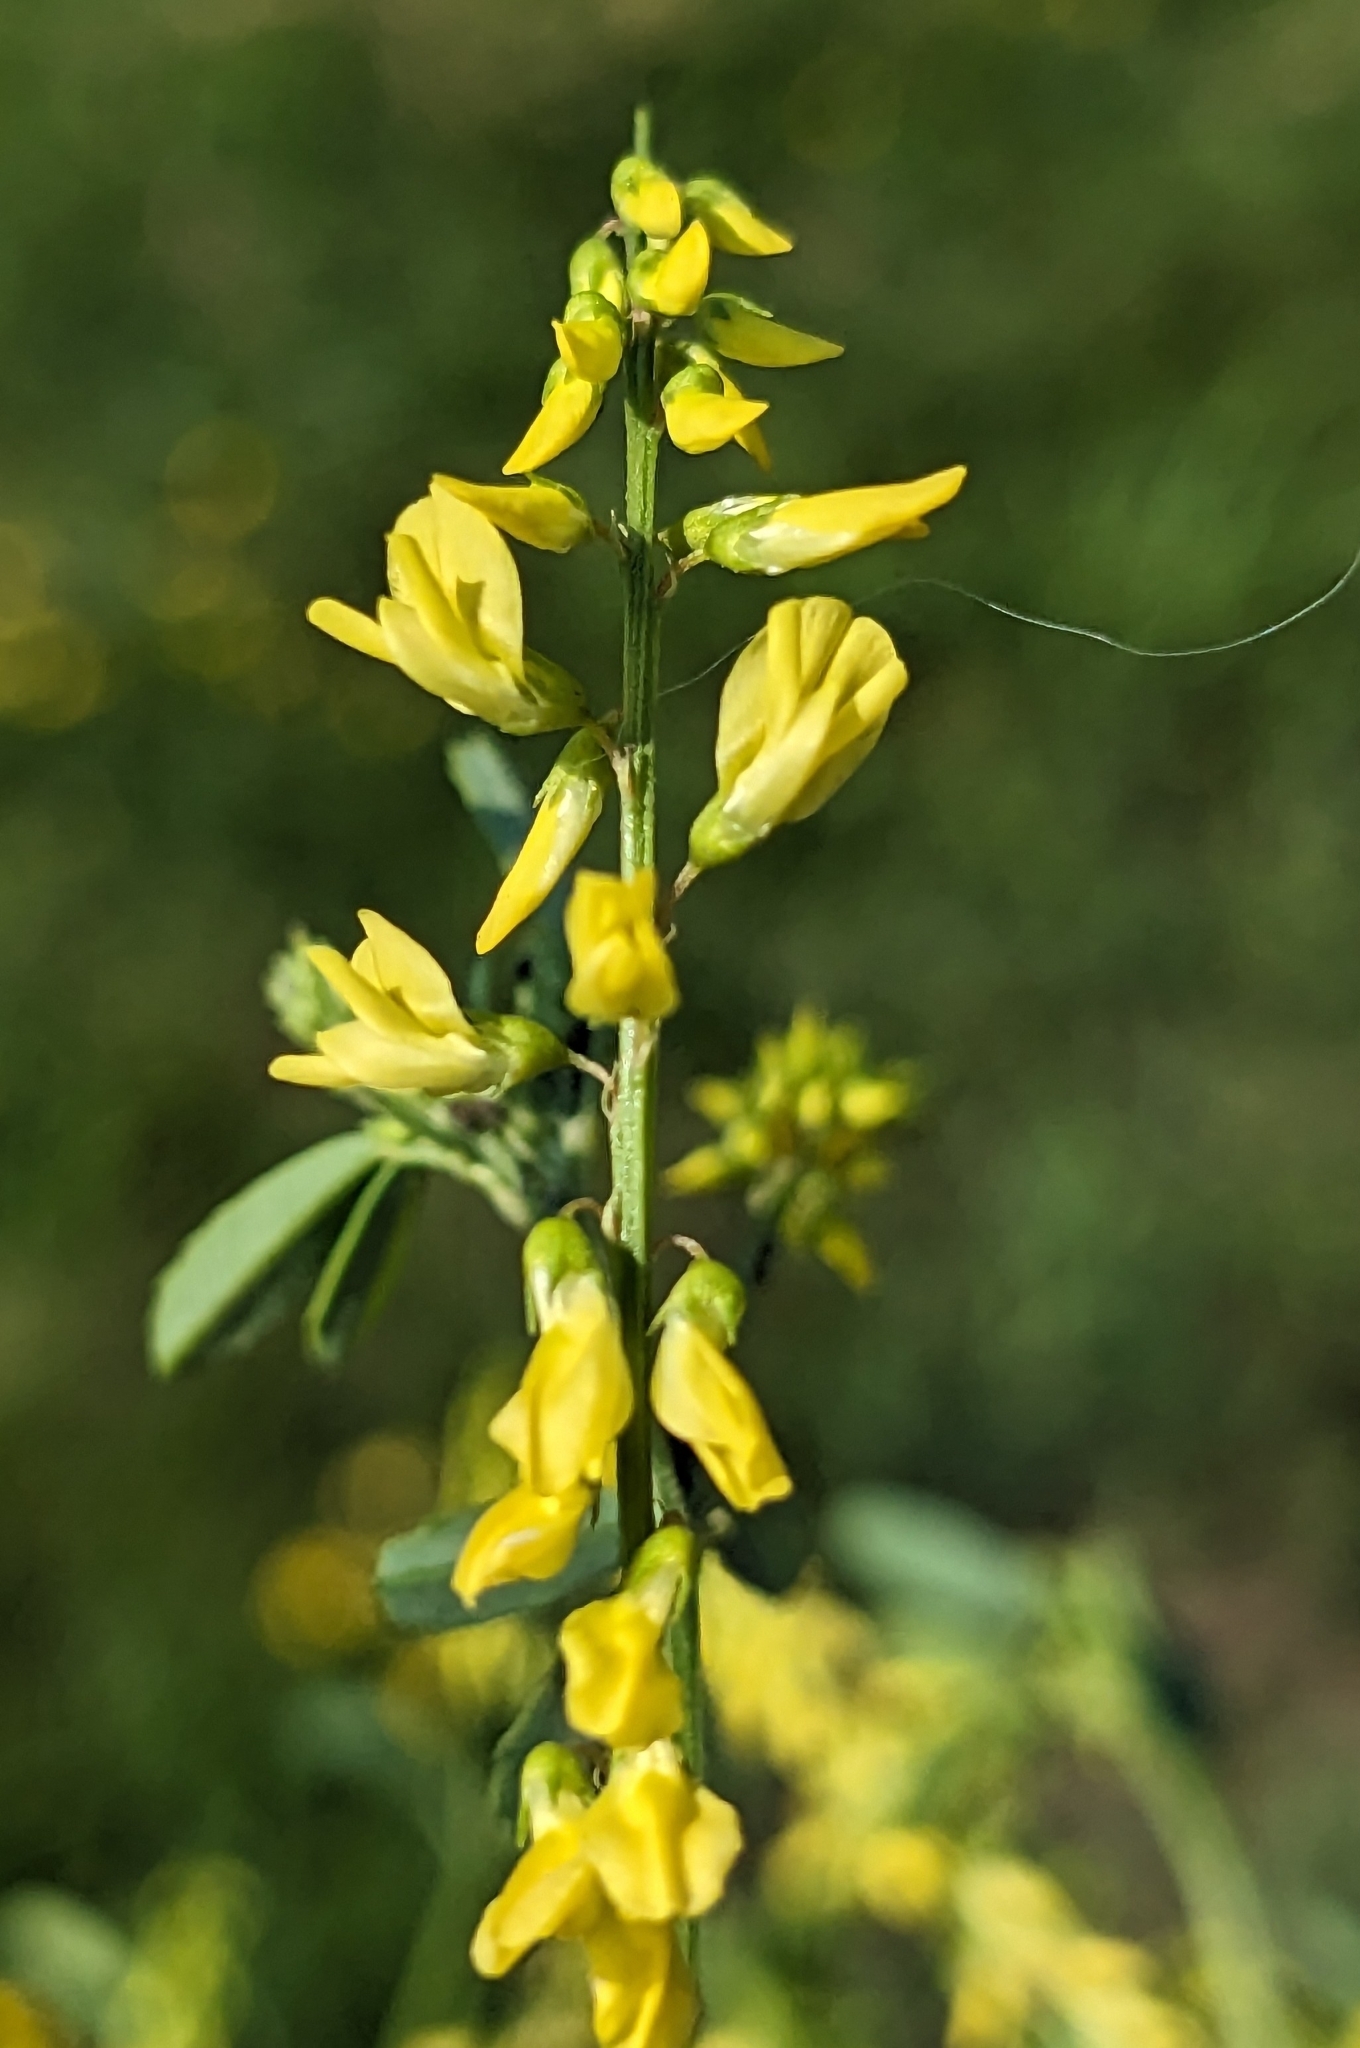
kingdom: Plantae
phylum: Tracheophyta
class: Magnoliopsida
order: Fabales
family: Fabaceae
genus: Melilotus
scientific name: Melilotus officinalis
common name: Sweetclover
